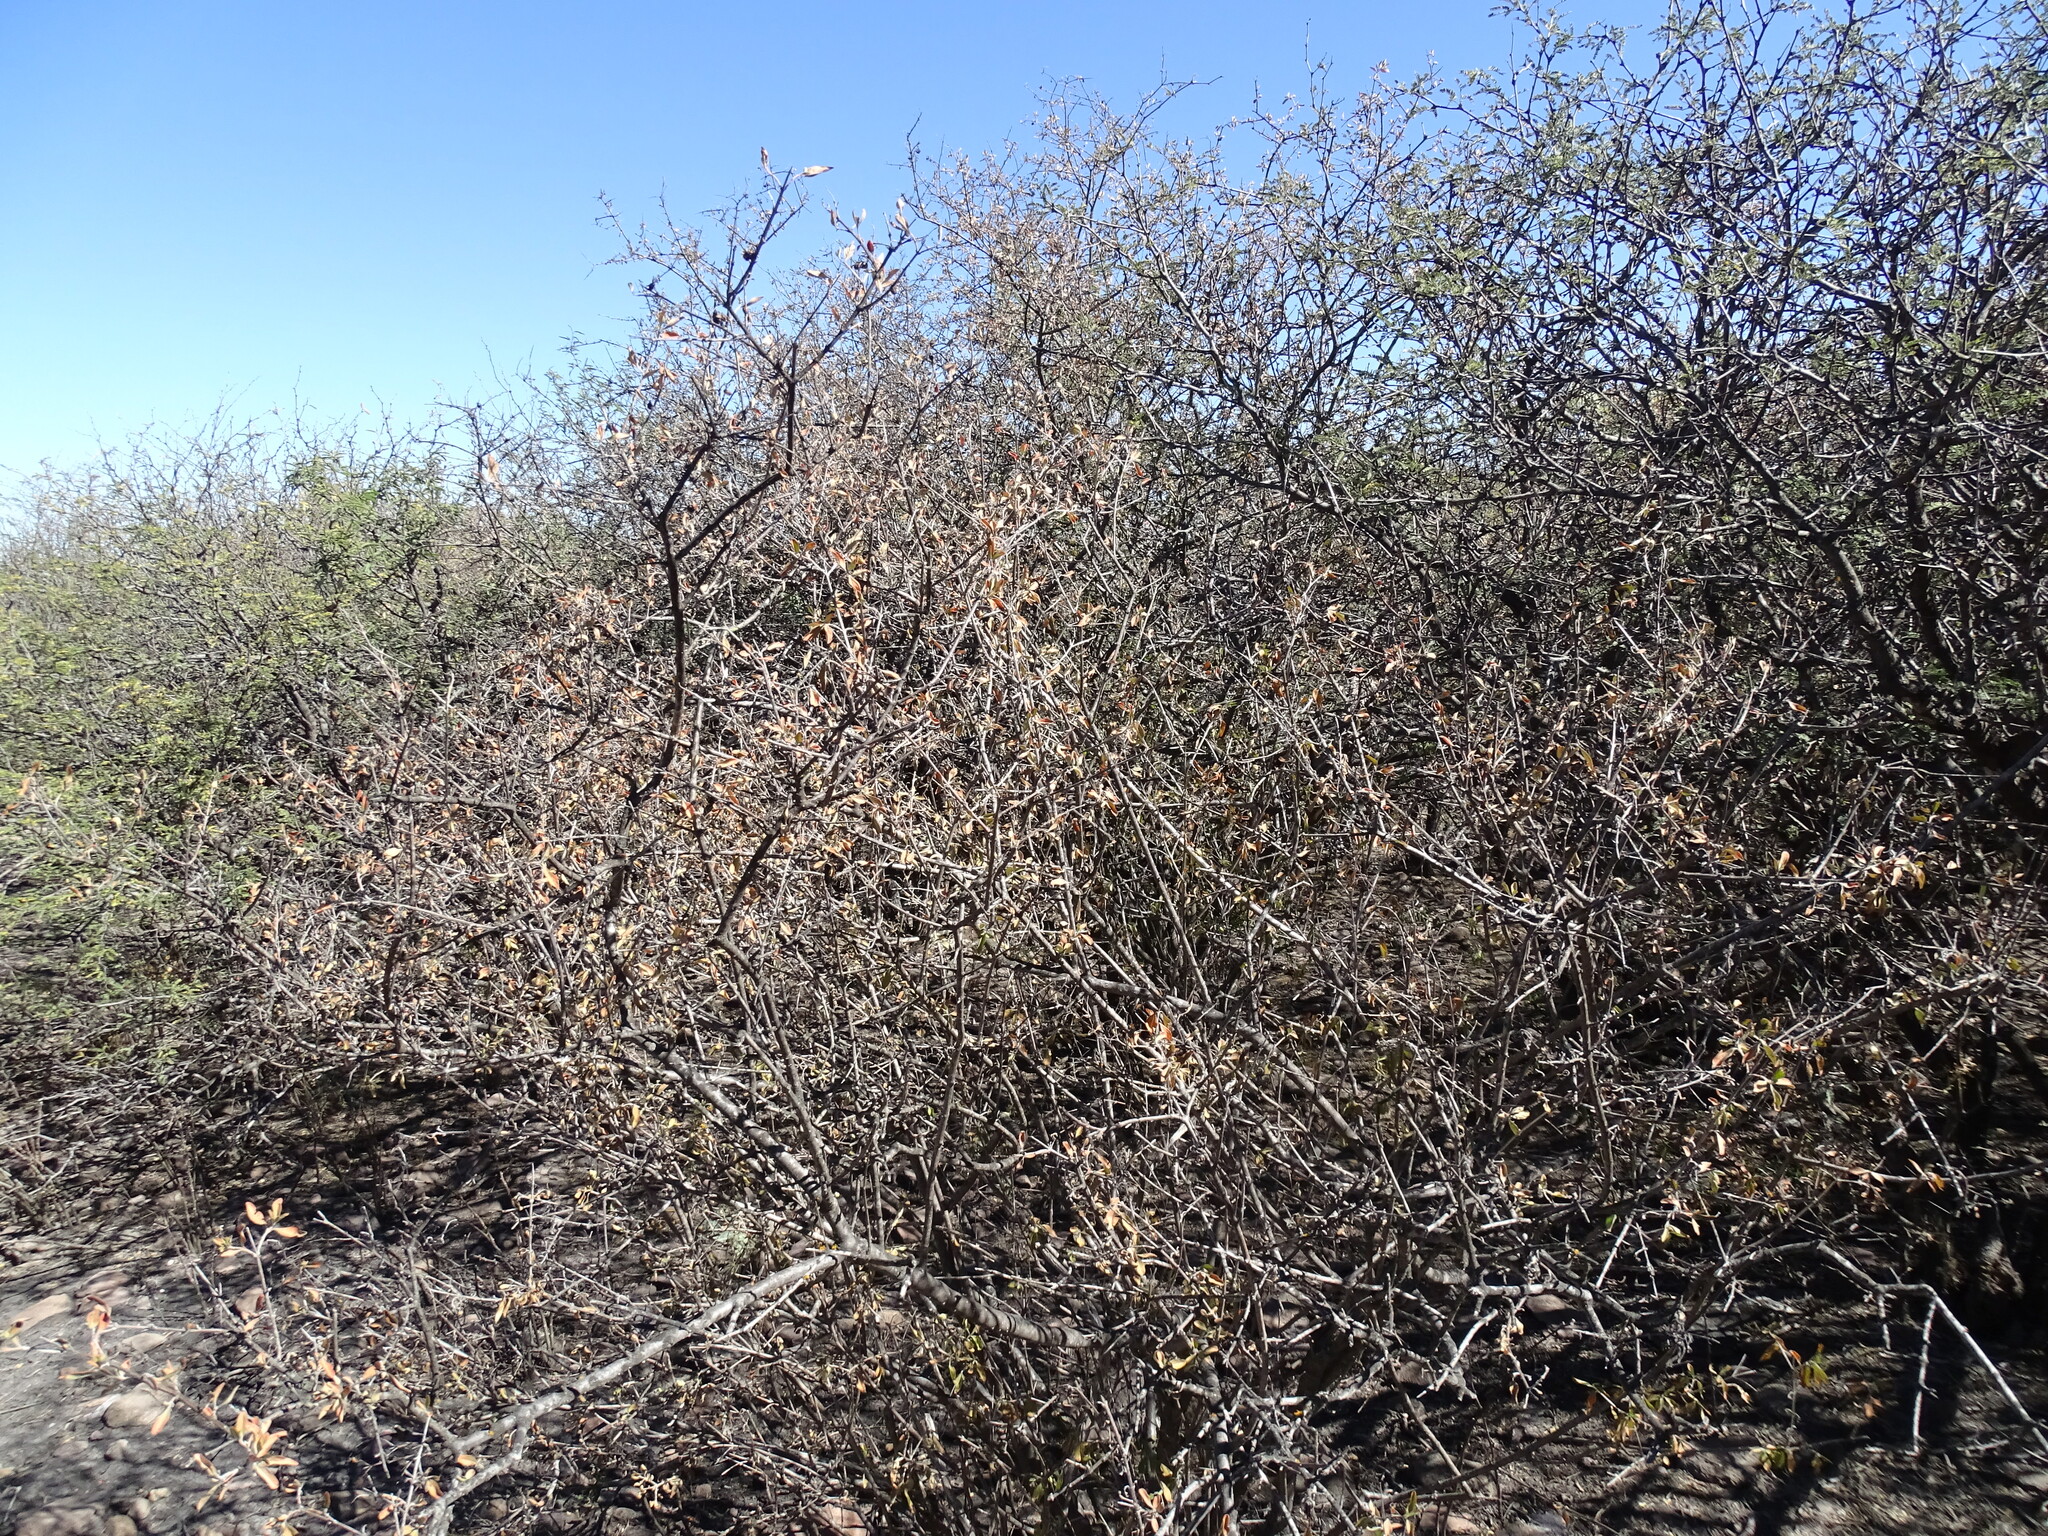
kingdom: Plantae
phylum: Tracheophyta
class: Magnoliopsida
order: Lamiales
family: Verbenaceae
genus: Citharexylum
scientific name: Citharexylum racemosum
